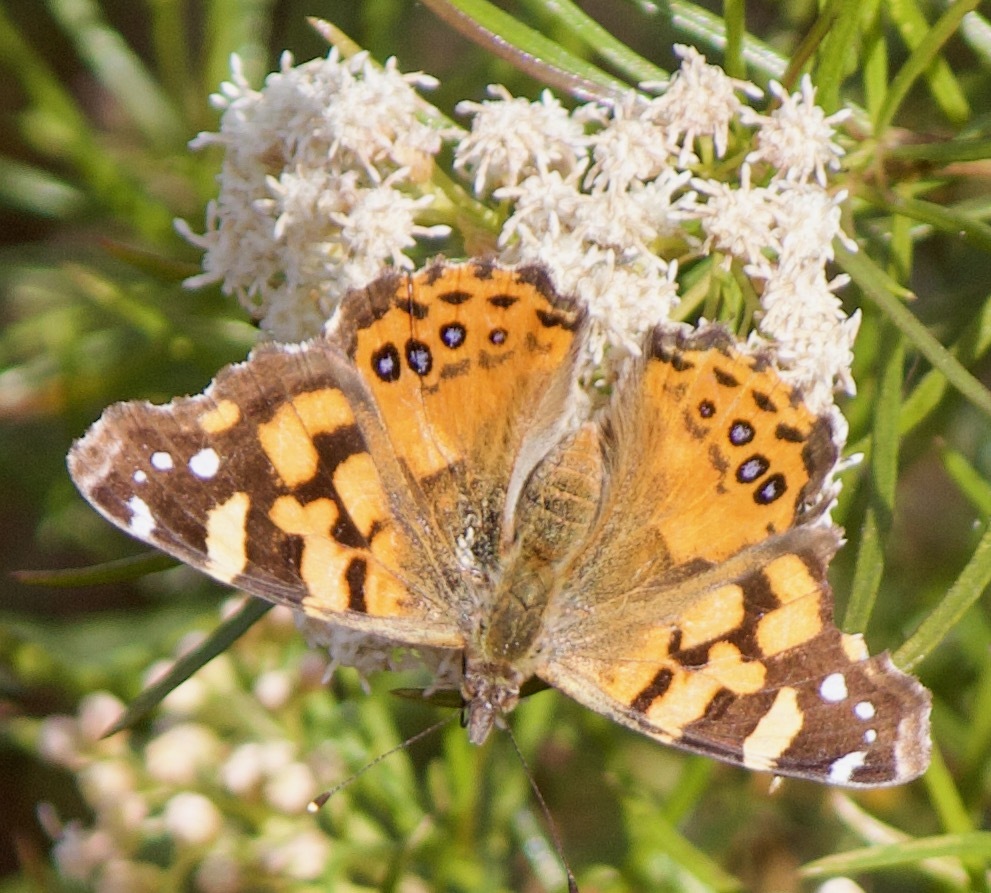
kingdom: Animalia
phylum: Arthropoda
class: Insecta
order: Lepidoptera
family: Nymphalidae
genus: Vanessa
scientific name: Vanessa carye
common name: Subtropical lady
